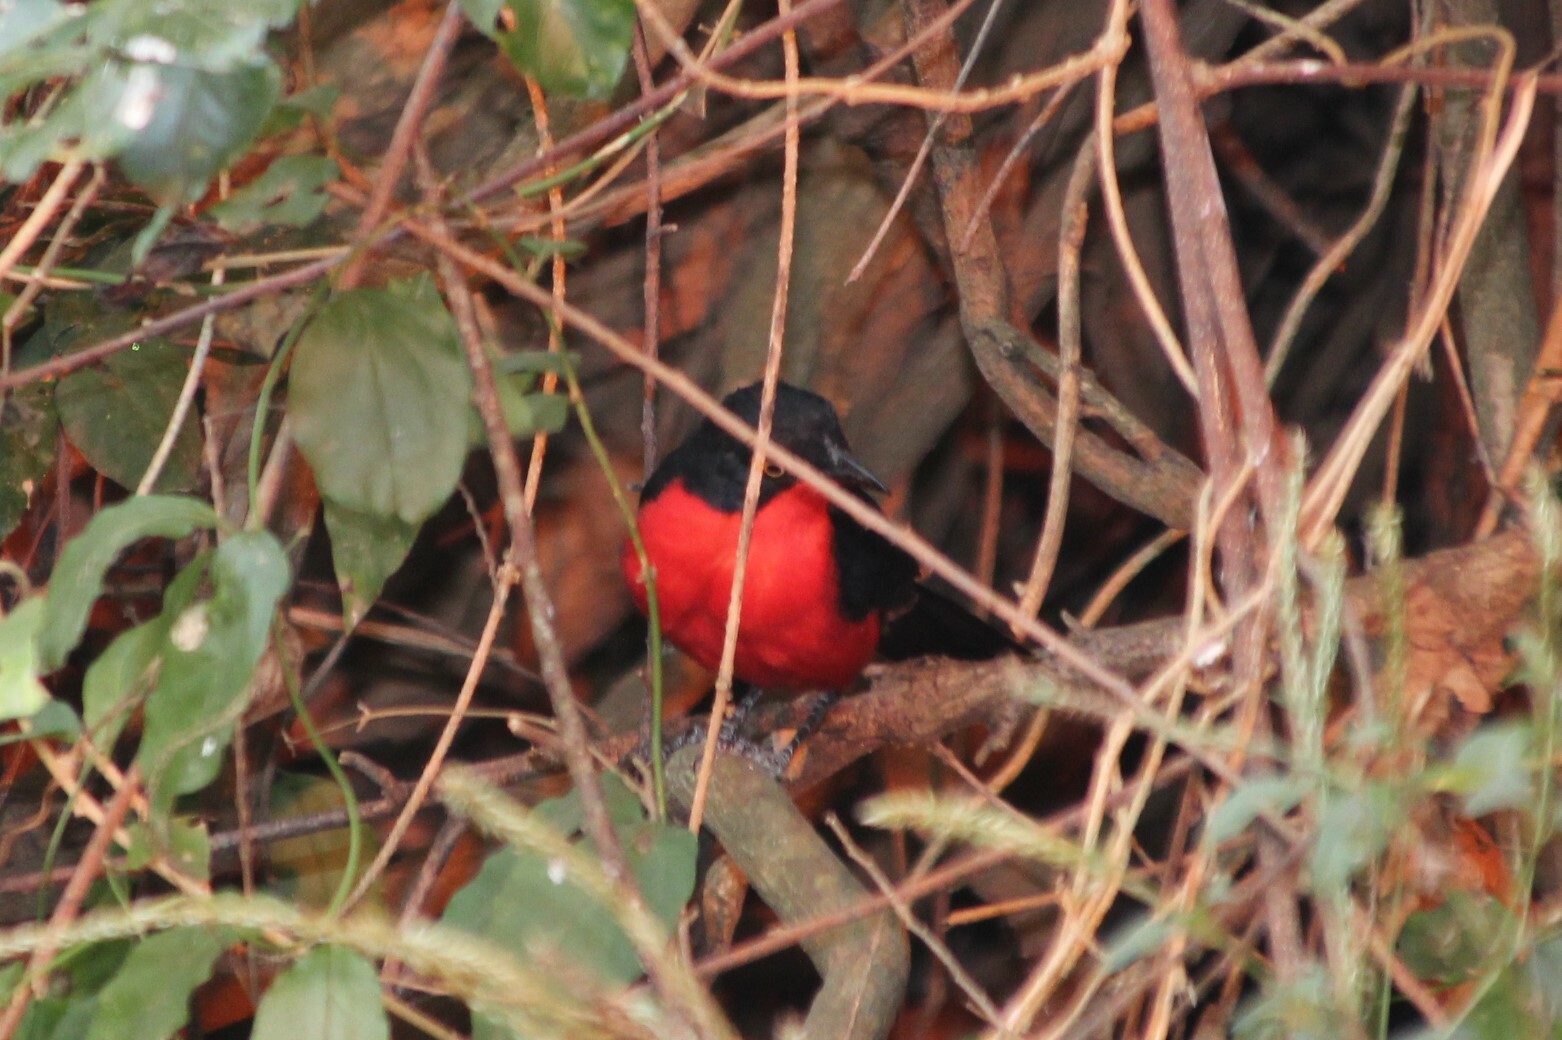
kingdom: Animalia
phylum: Chordata
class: Aves
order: Passeriformes
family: Malaconotidae
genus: Laniarius
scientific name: Laniarius erythrogaster
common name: Black-headed gonolek
